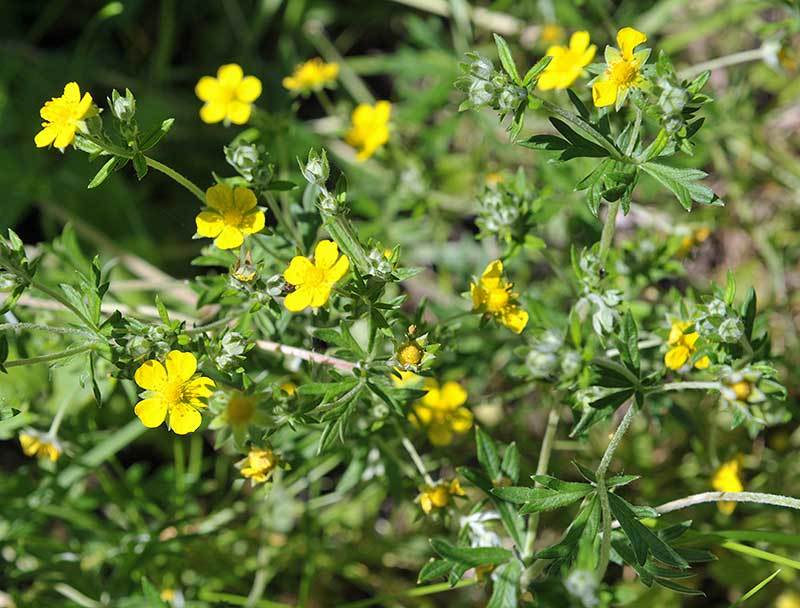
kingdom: Plantae
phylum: Tracheophyta
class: Magnoliopsida
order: Rosales
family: Rosaceae
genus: Potentilla
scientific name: Potentilla argentea
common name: Hoary cinquefoil
